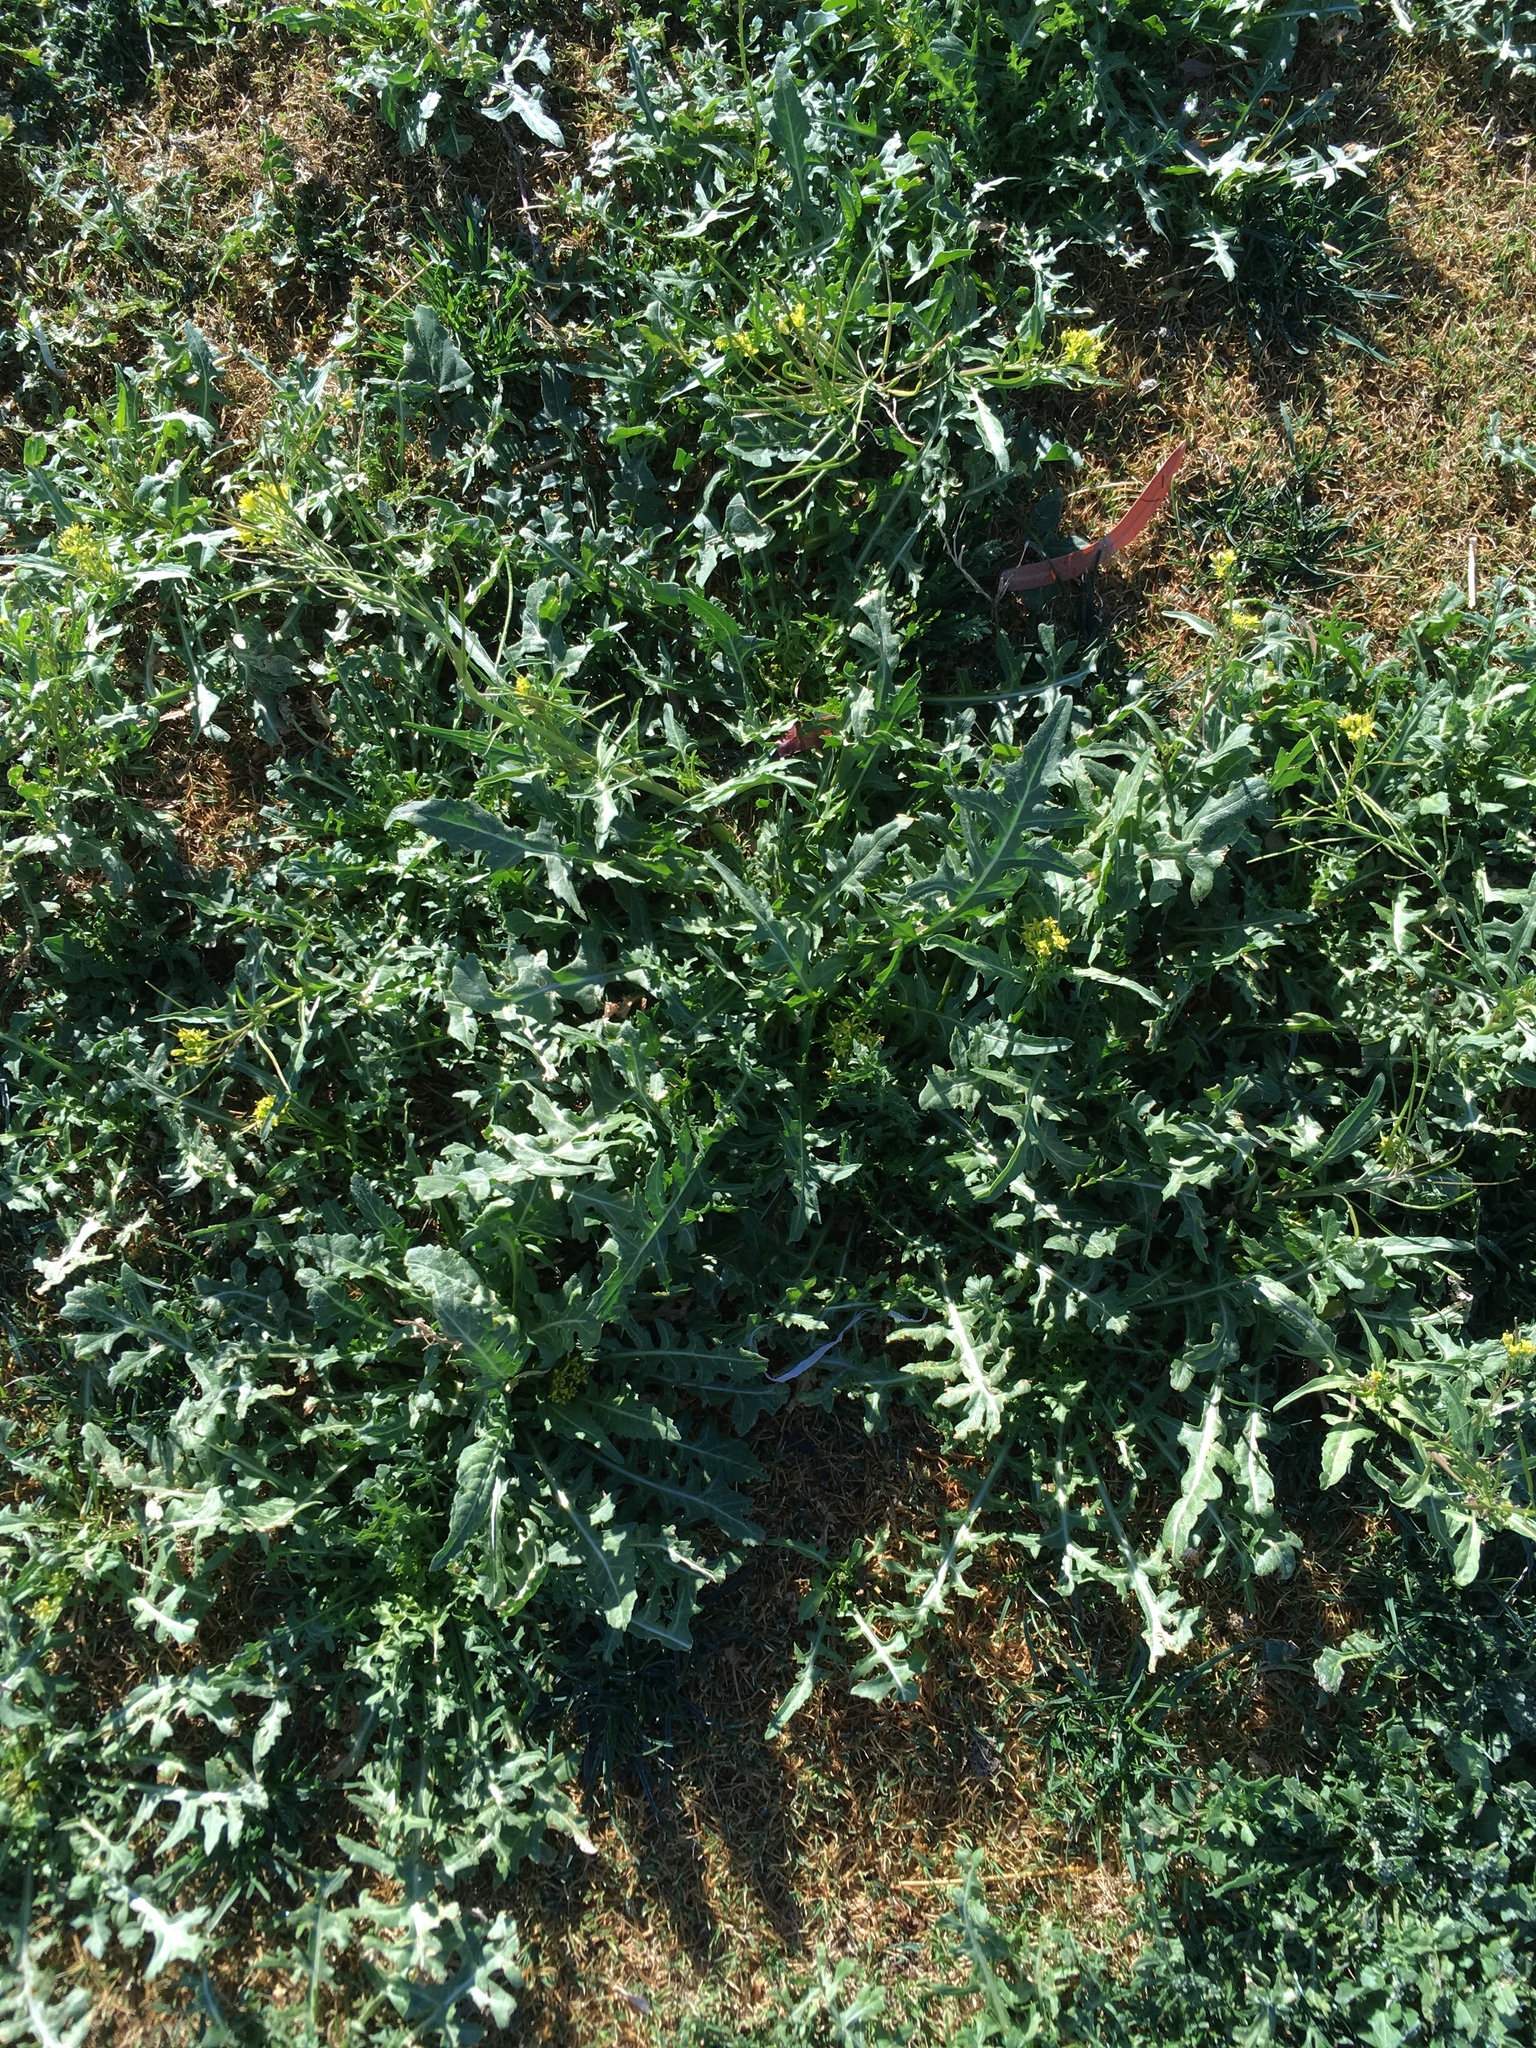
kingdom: Plantae
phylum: Tracheophyta
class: Magnoliopsida
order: Brassicales
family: Brassicaceae
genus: Sisymbrium
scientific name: Sisymbrium irio
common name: London rocket
